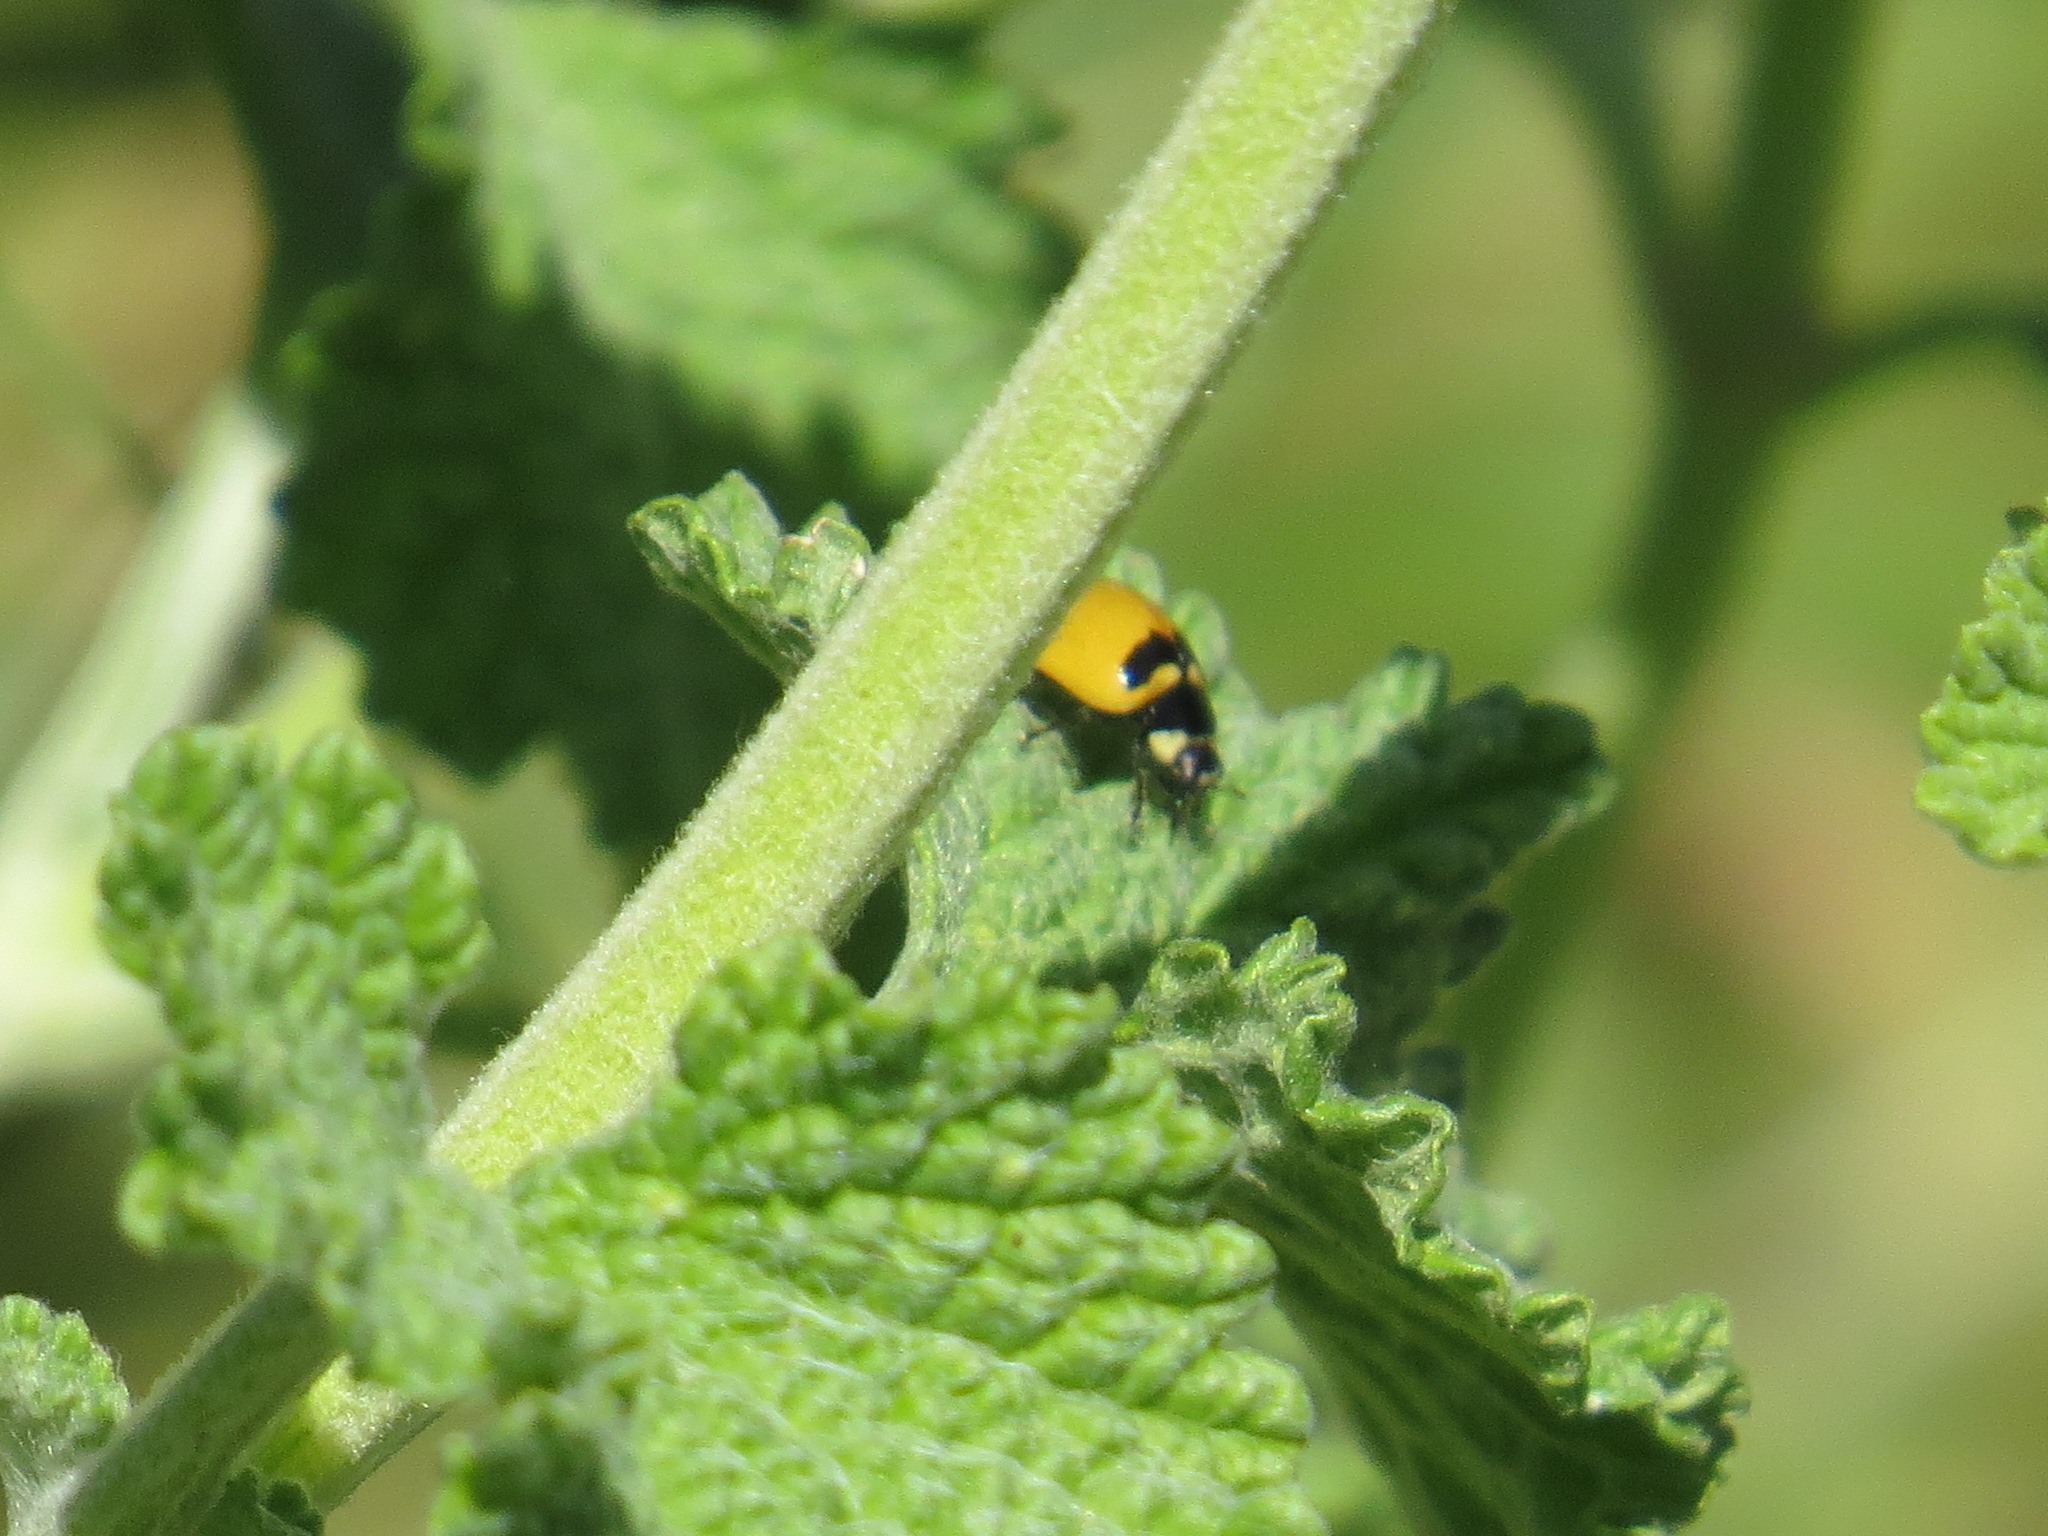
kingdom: Animalia
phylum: Arthropoda
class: Insecta
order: Coleoptera
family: Coccinellidae
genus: Coccinella
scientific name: Coccinella trifasciata
